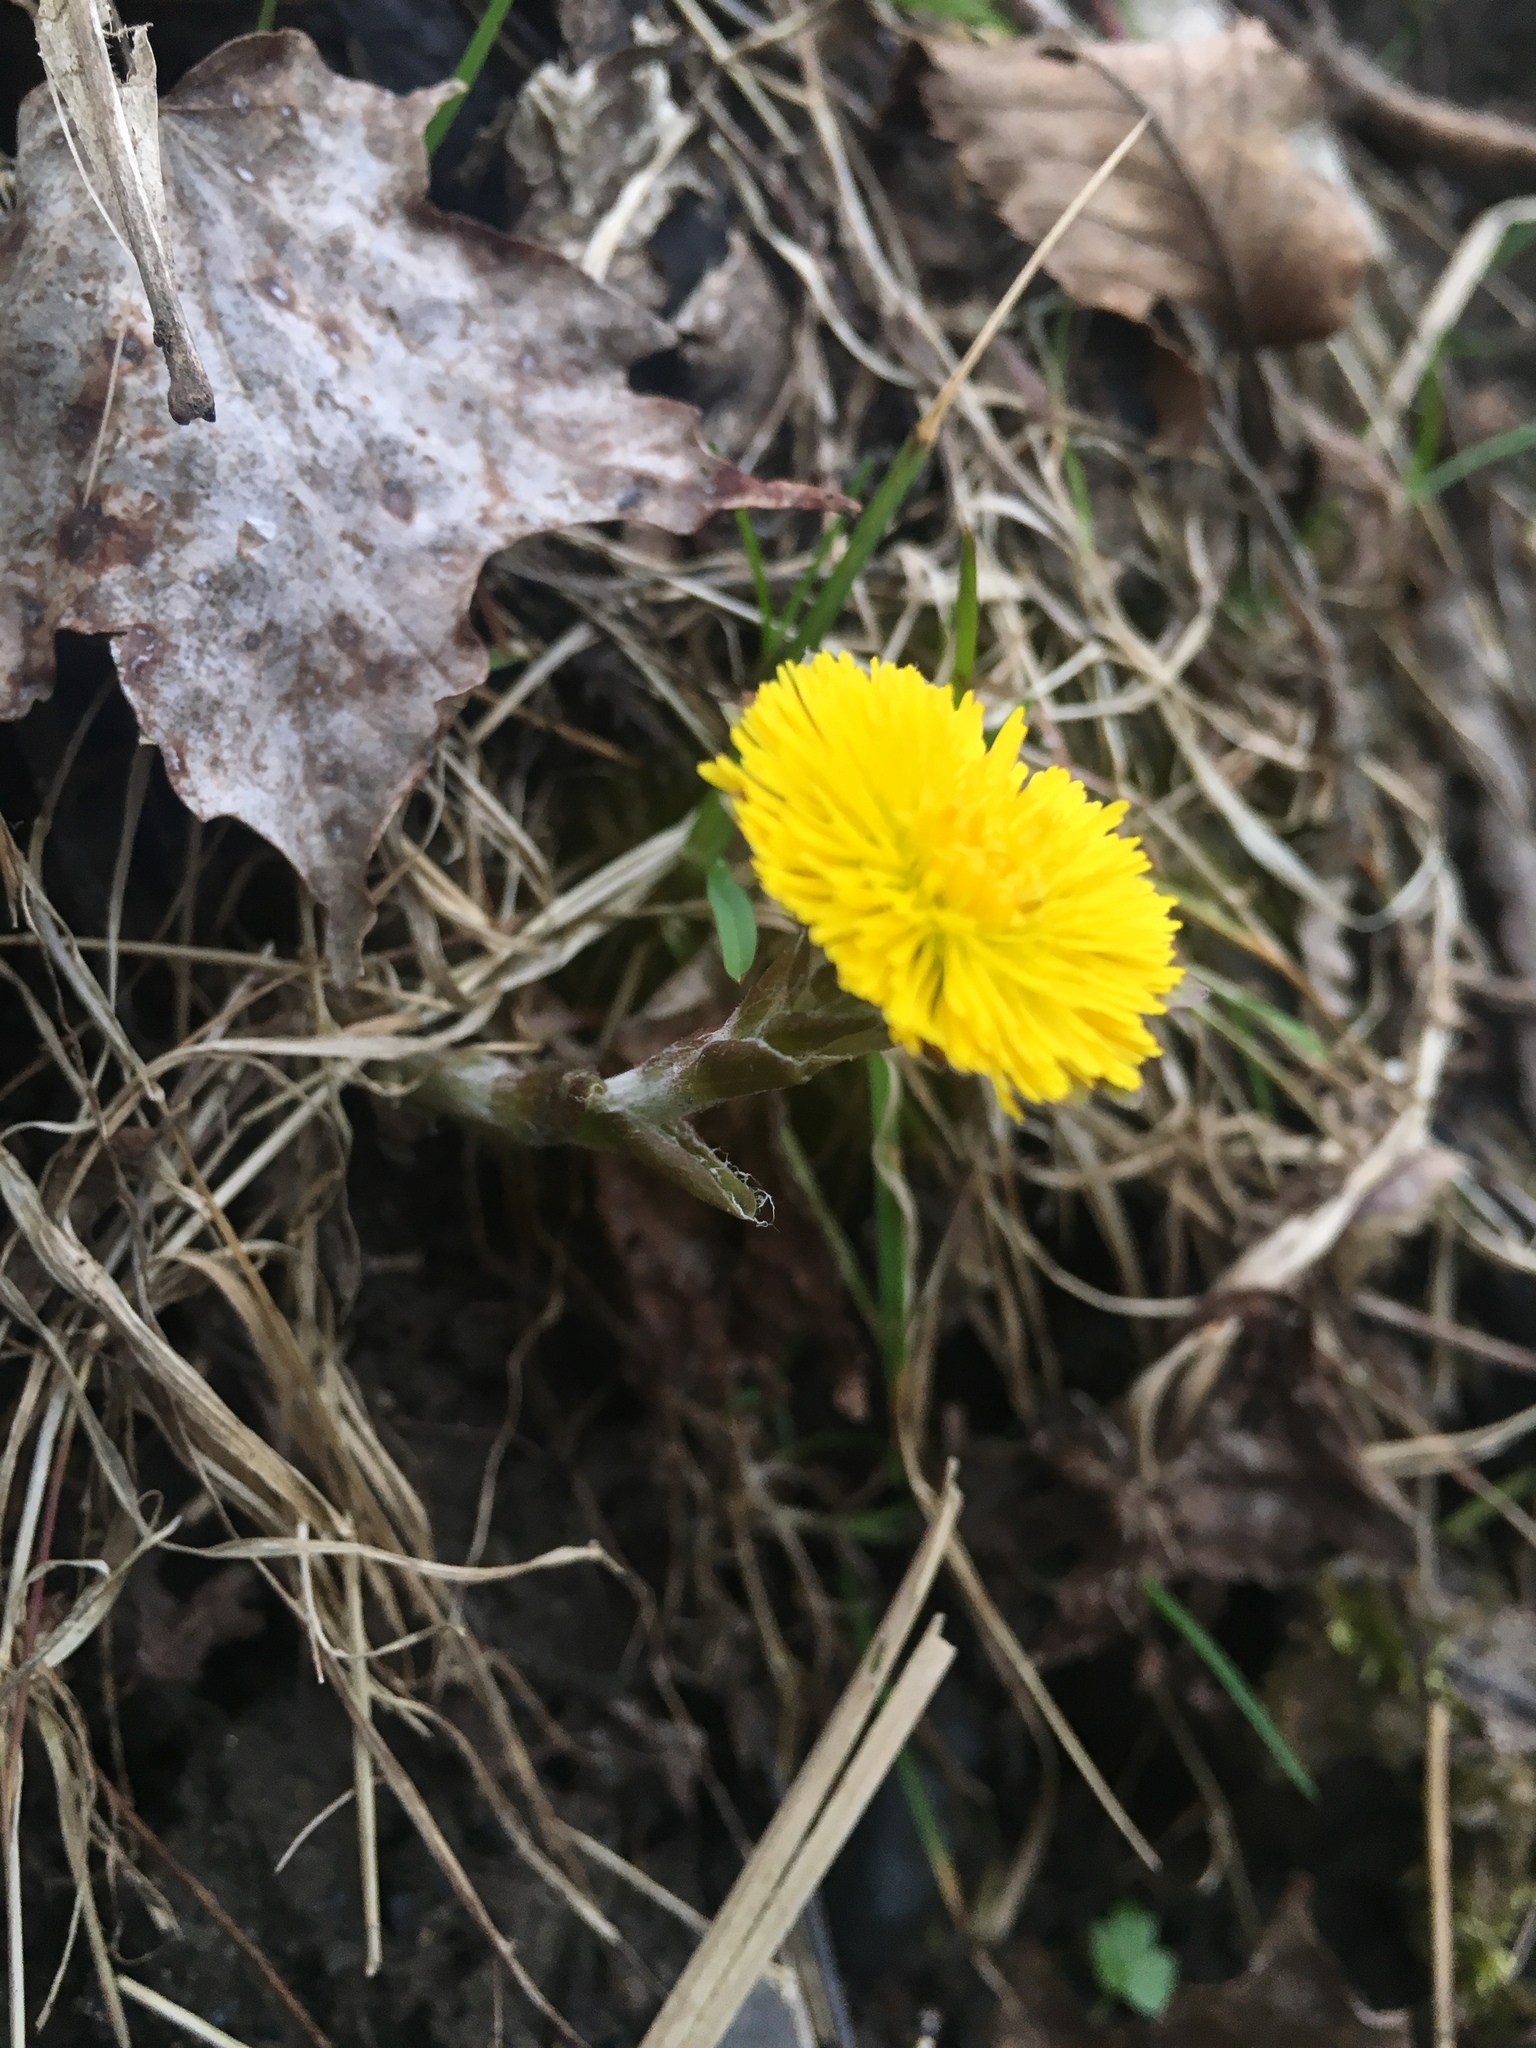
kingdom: Plantae
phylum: Tracheophyta
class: Magnoliopsida
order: Asterales
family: Asteraceae
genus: Tussilago
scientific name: Tussilago farfara
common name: Coltsfoot
